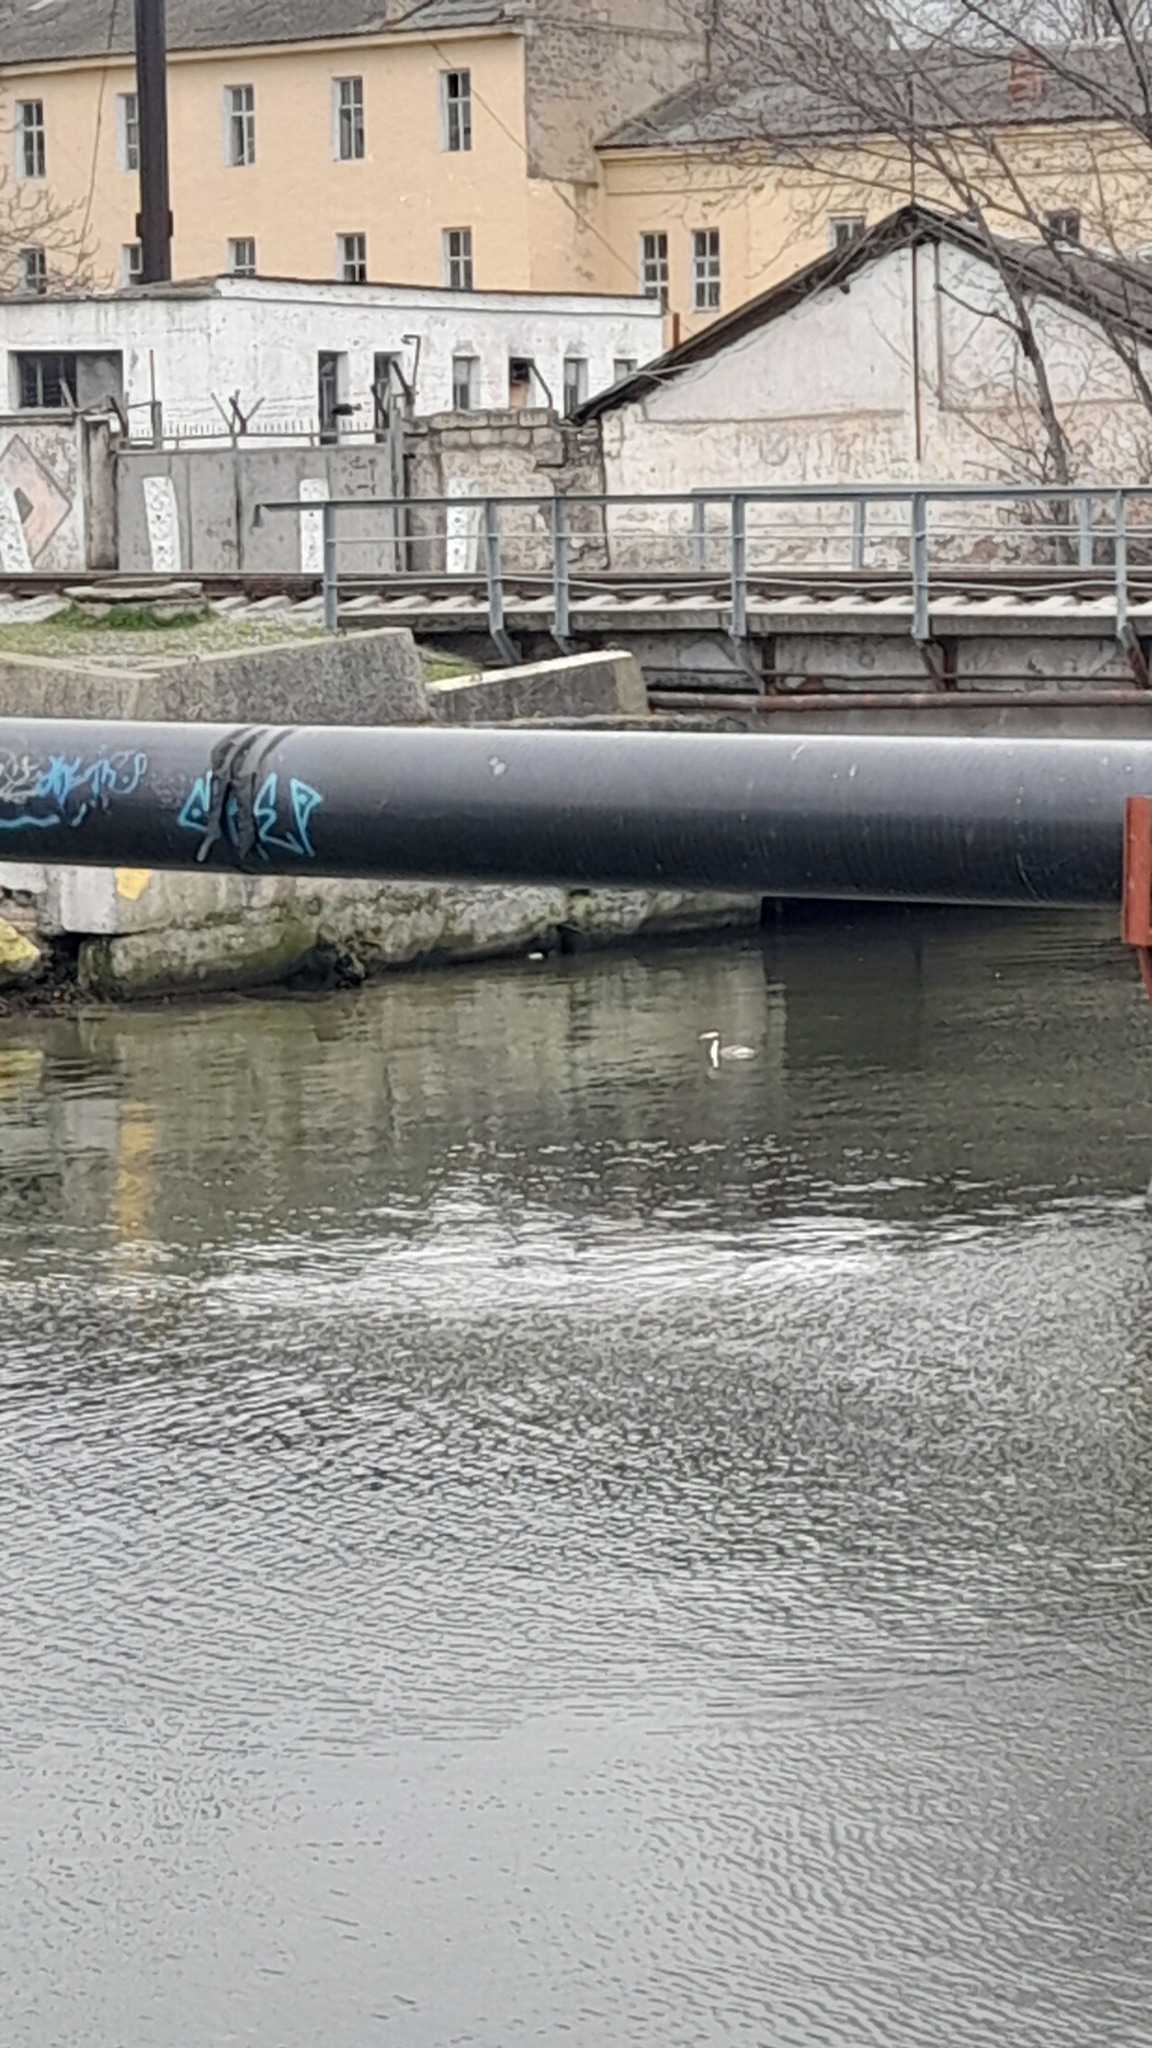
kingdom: Animalia
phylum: Chordata
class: Aves
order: Podicipediformes
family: Podicipedidae
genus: Podiceps
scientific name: Podiceps cristatus
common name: Great crested grebe
